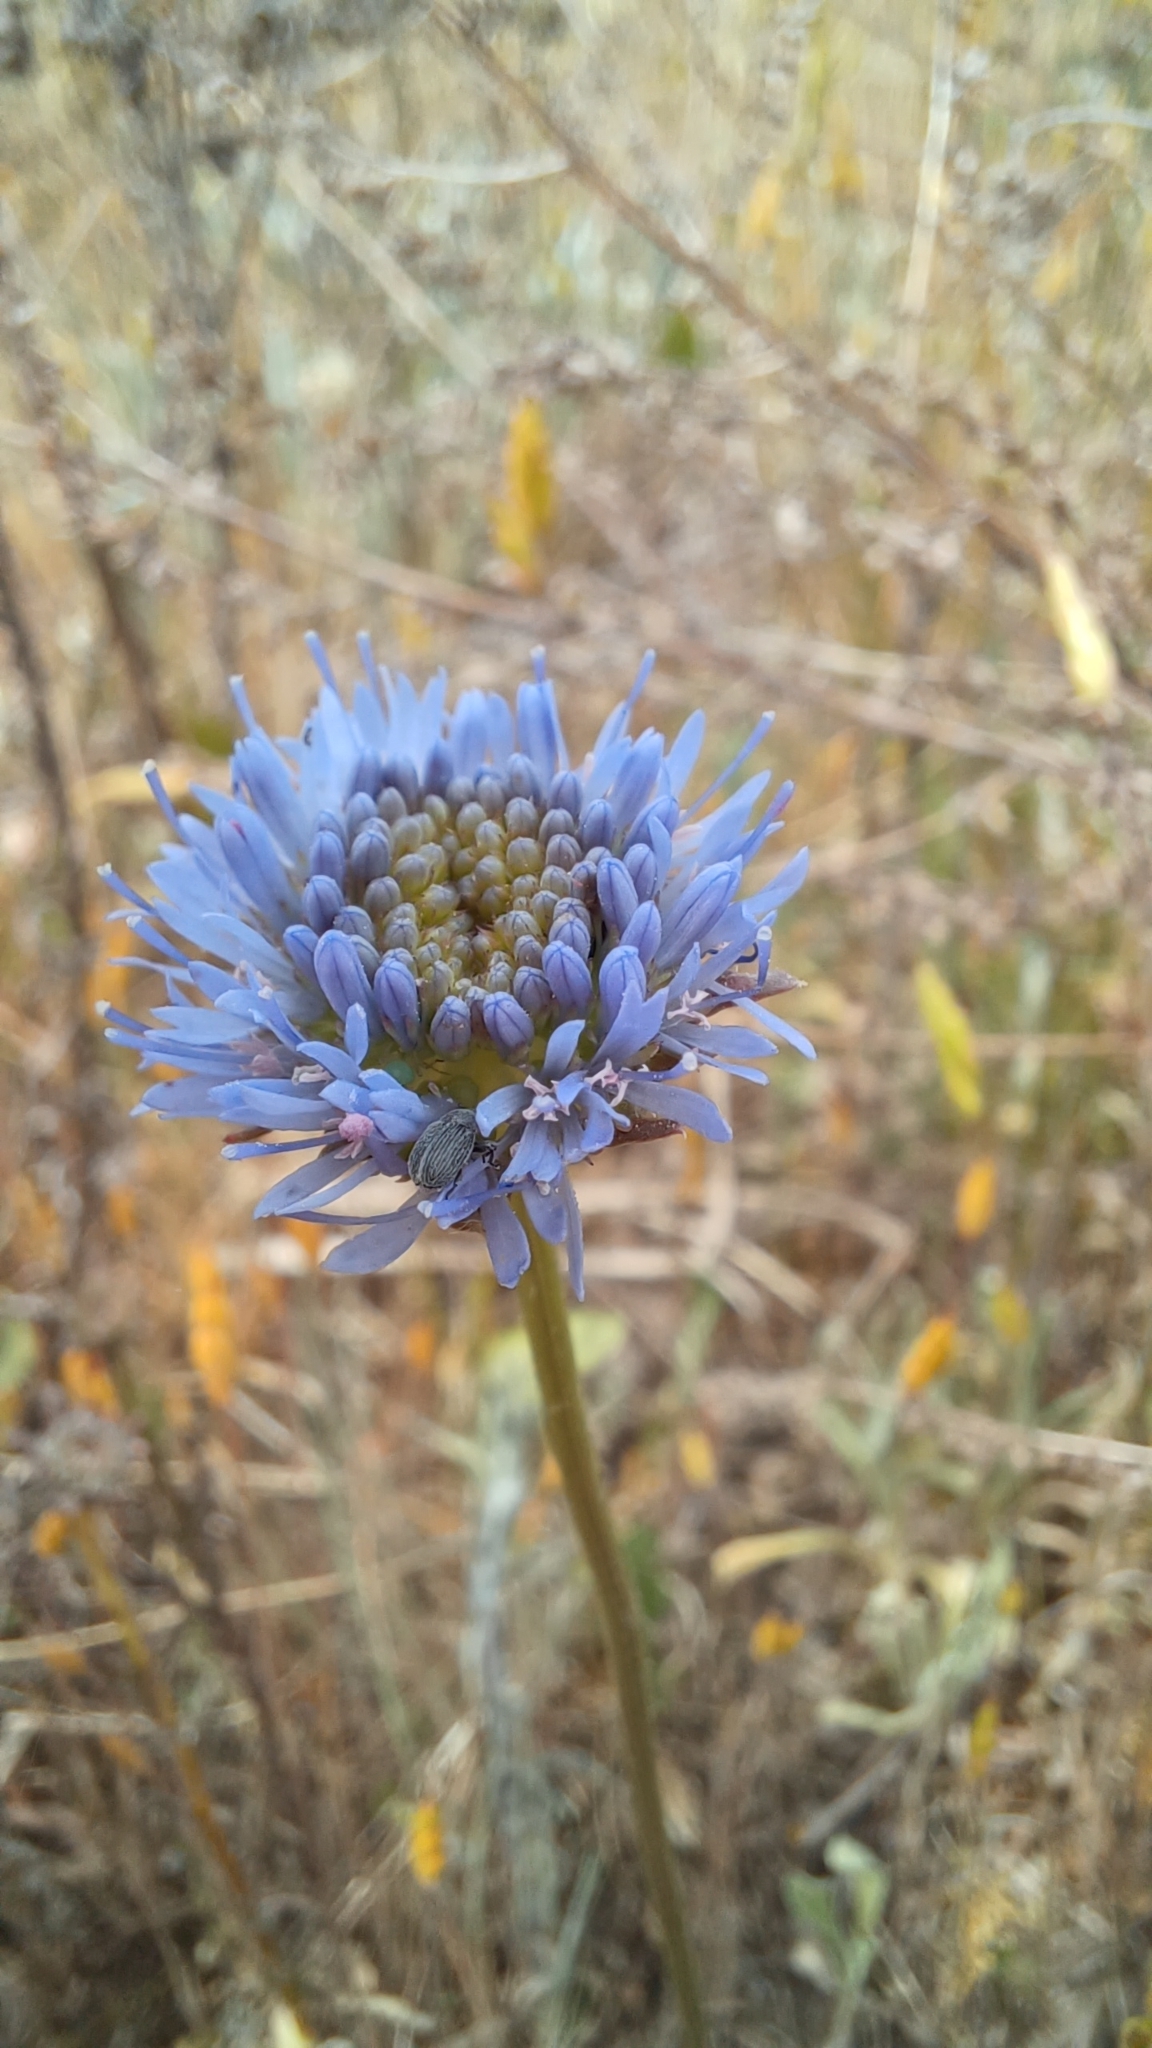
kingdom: Plantae
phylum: Tracheophyta
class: Magnoliopsida
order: Asterales
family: Campanulaceae
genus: Jasione
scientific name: Jasione montana
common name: Sheep's-bit
